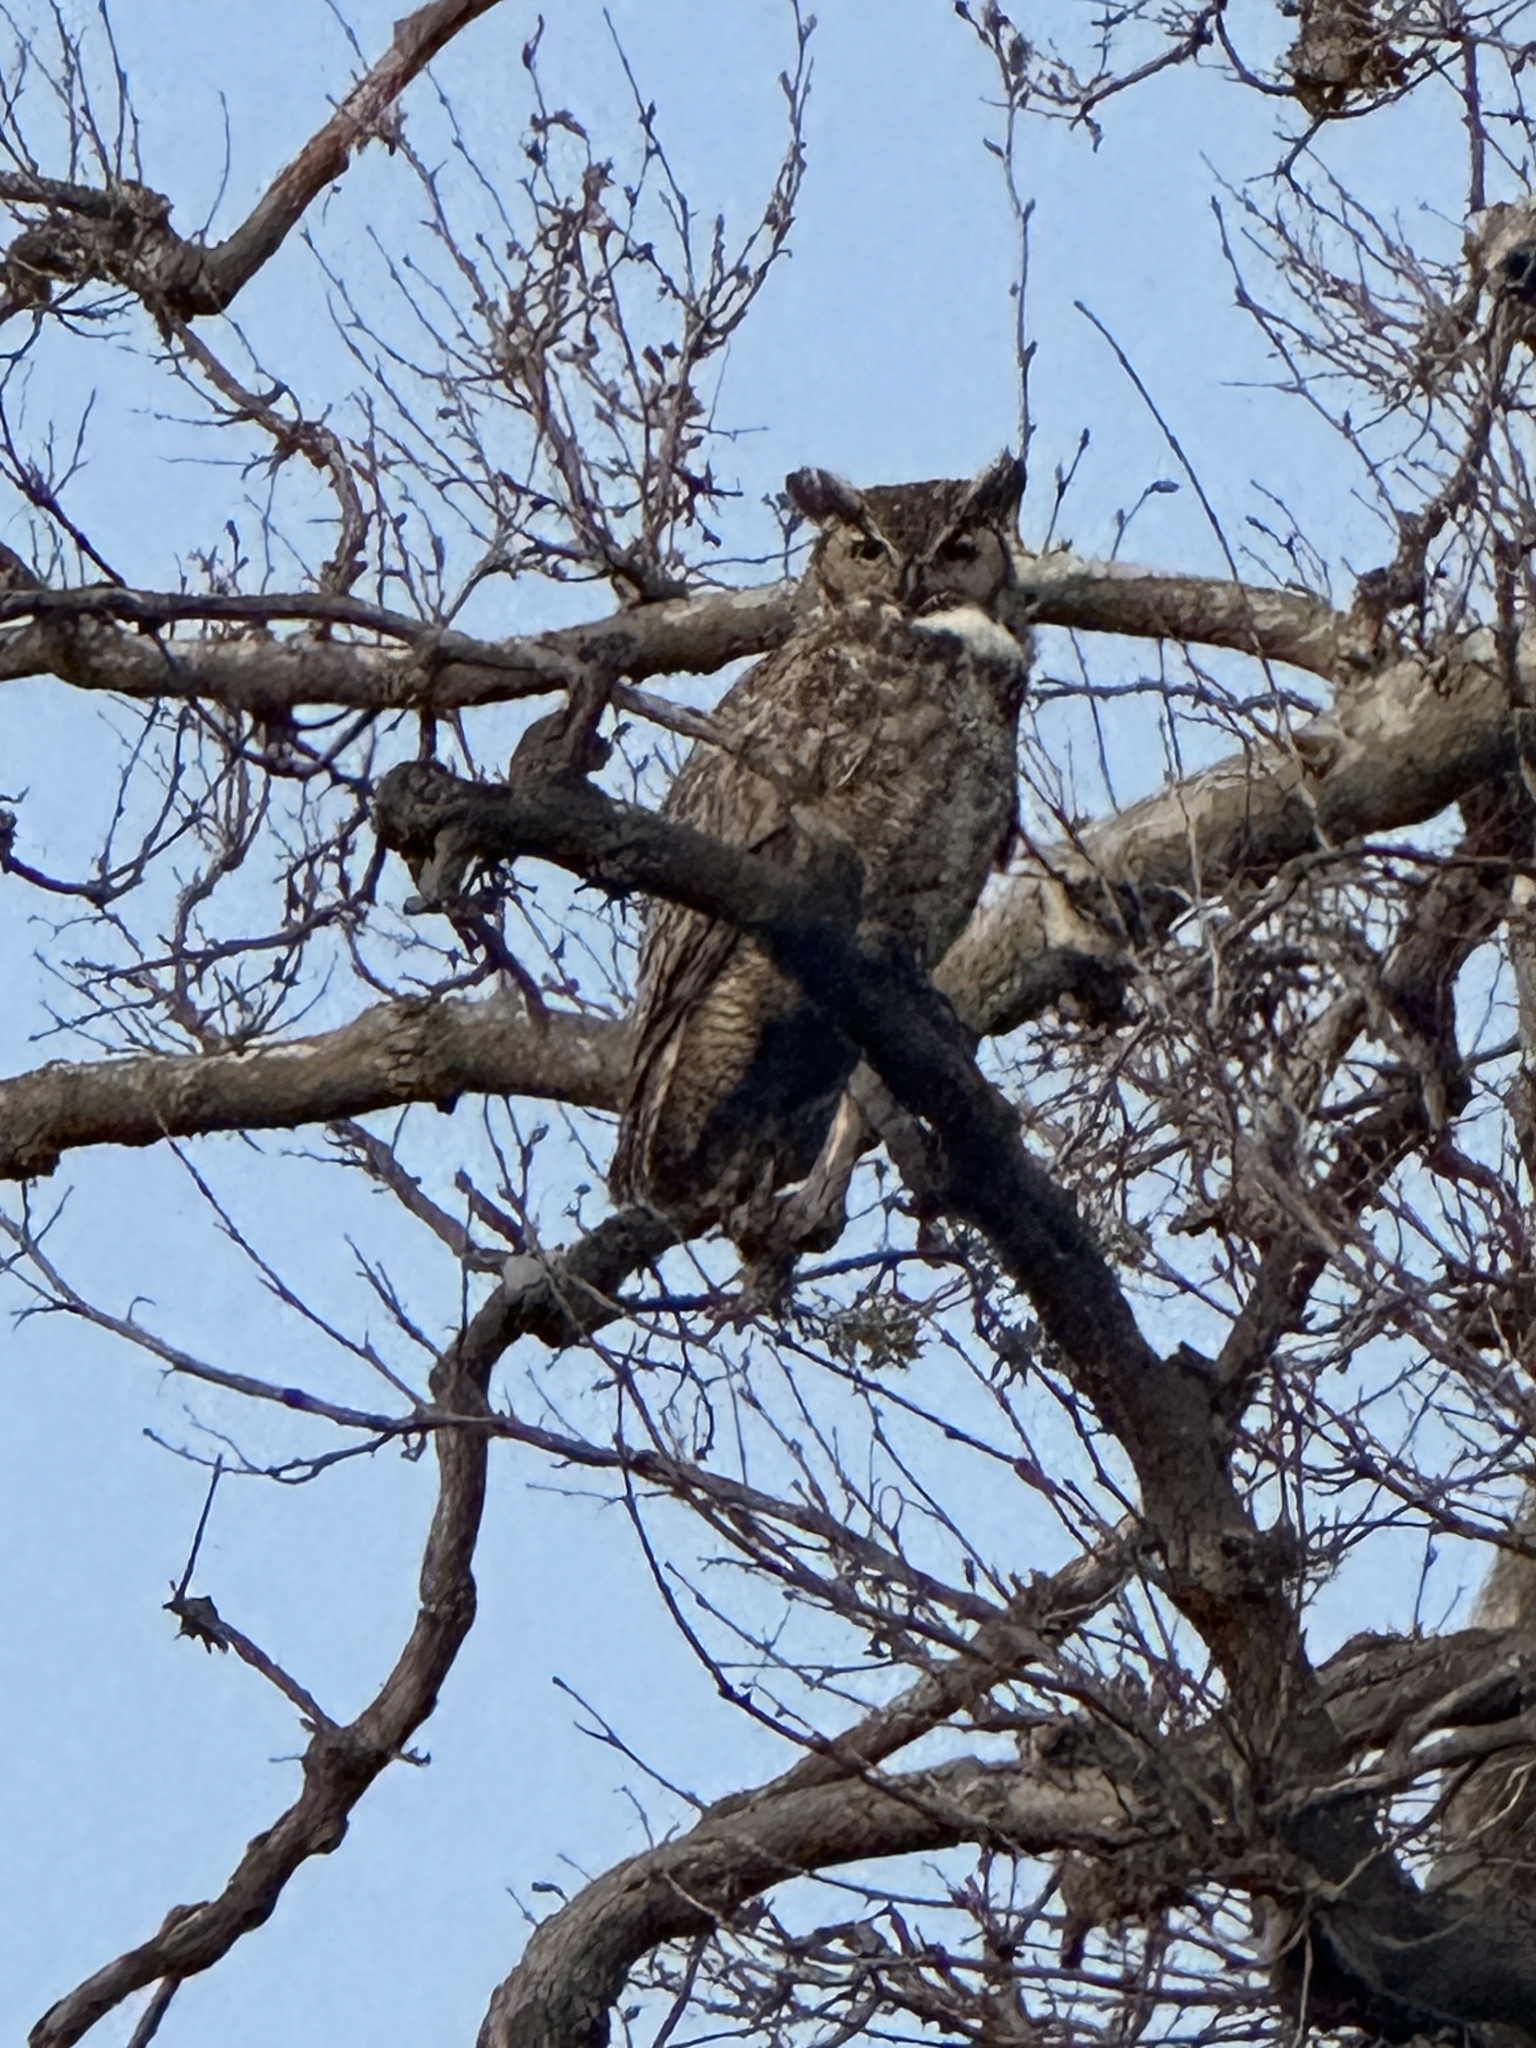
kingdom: Animalia
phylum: Chordata
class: Aves
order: Strigiformes
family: Strigidae
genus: Bubo
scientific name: Bubo virginianus
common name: Great horned owl
